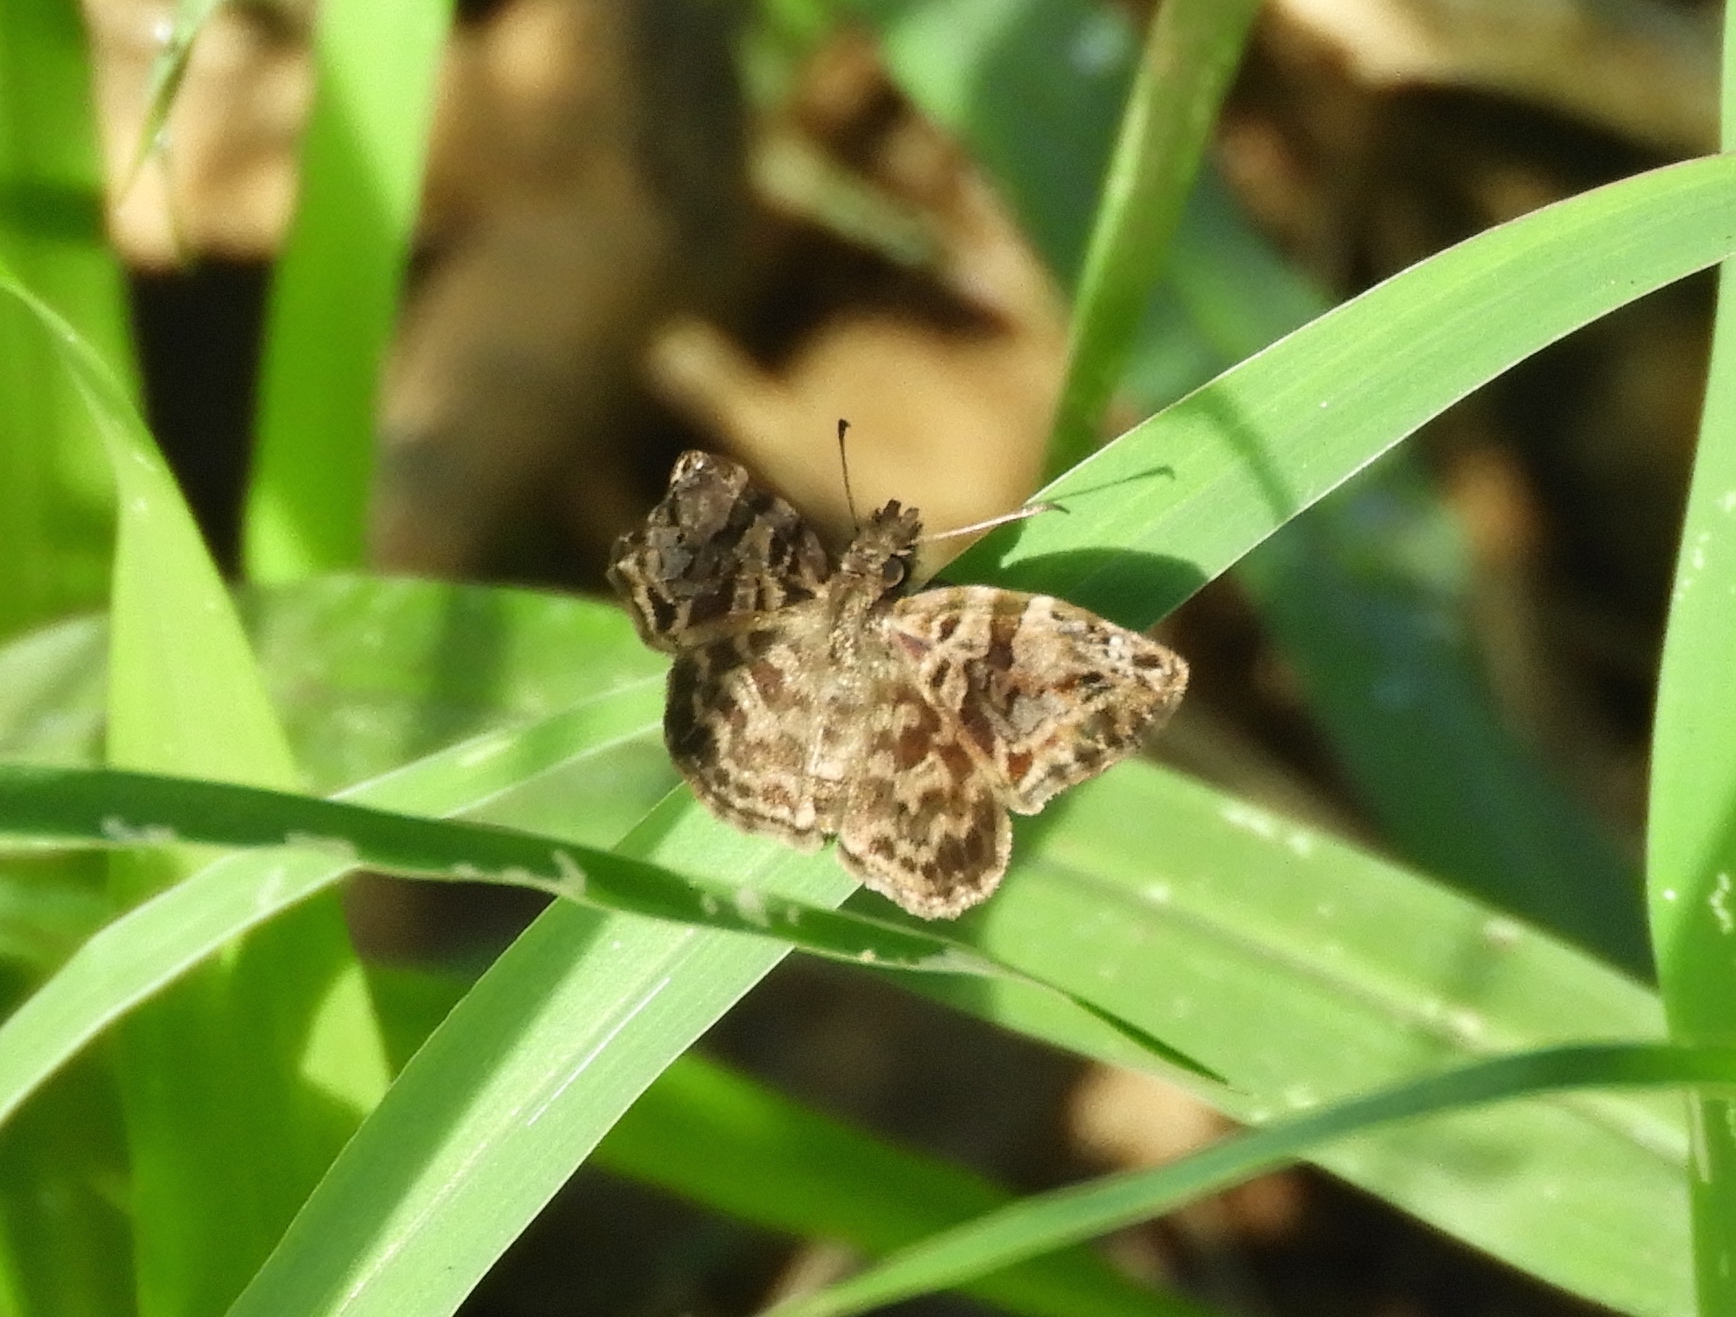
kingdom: Animalia
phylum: Arthropoda
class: Insecta
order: Lepidoptera
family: Hesperiidae
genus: Gorgythion
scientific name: Gorgythion begga
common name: Variegated skipper
